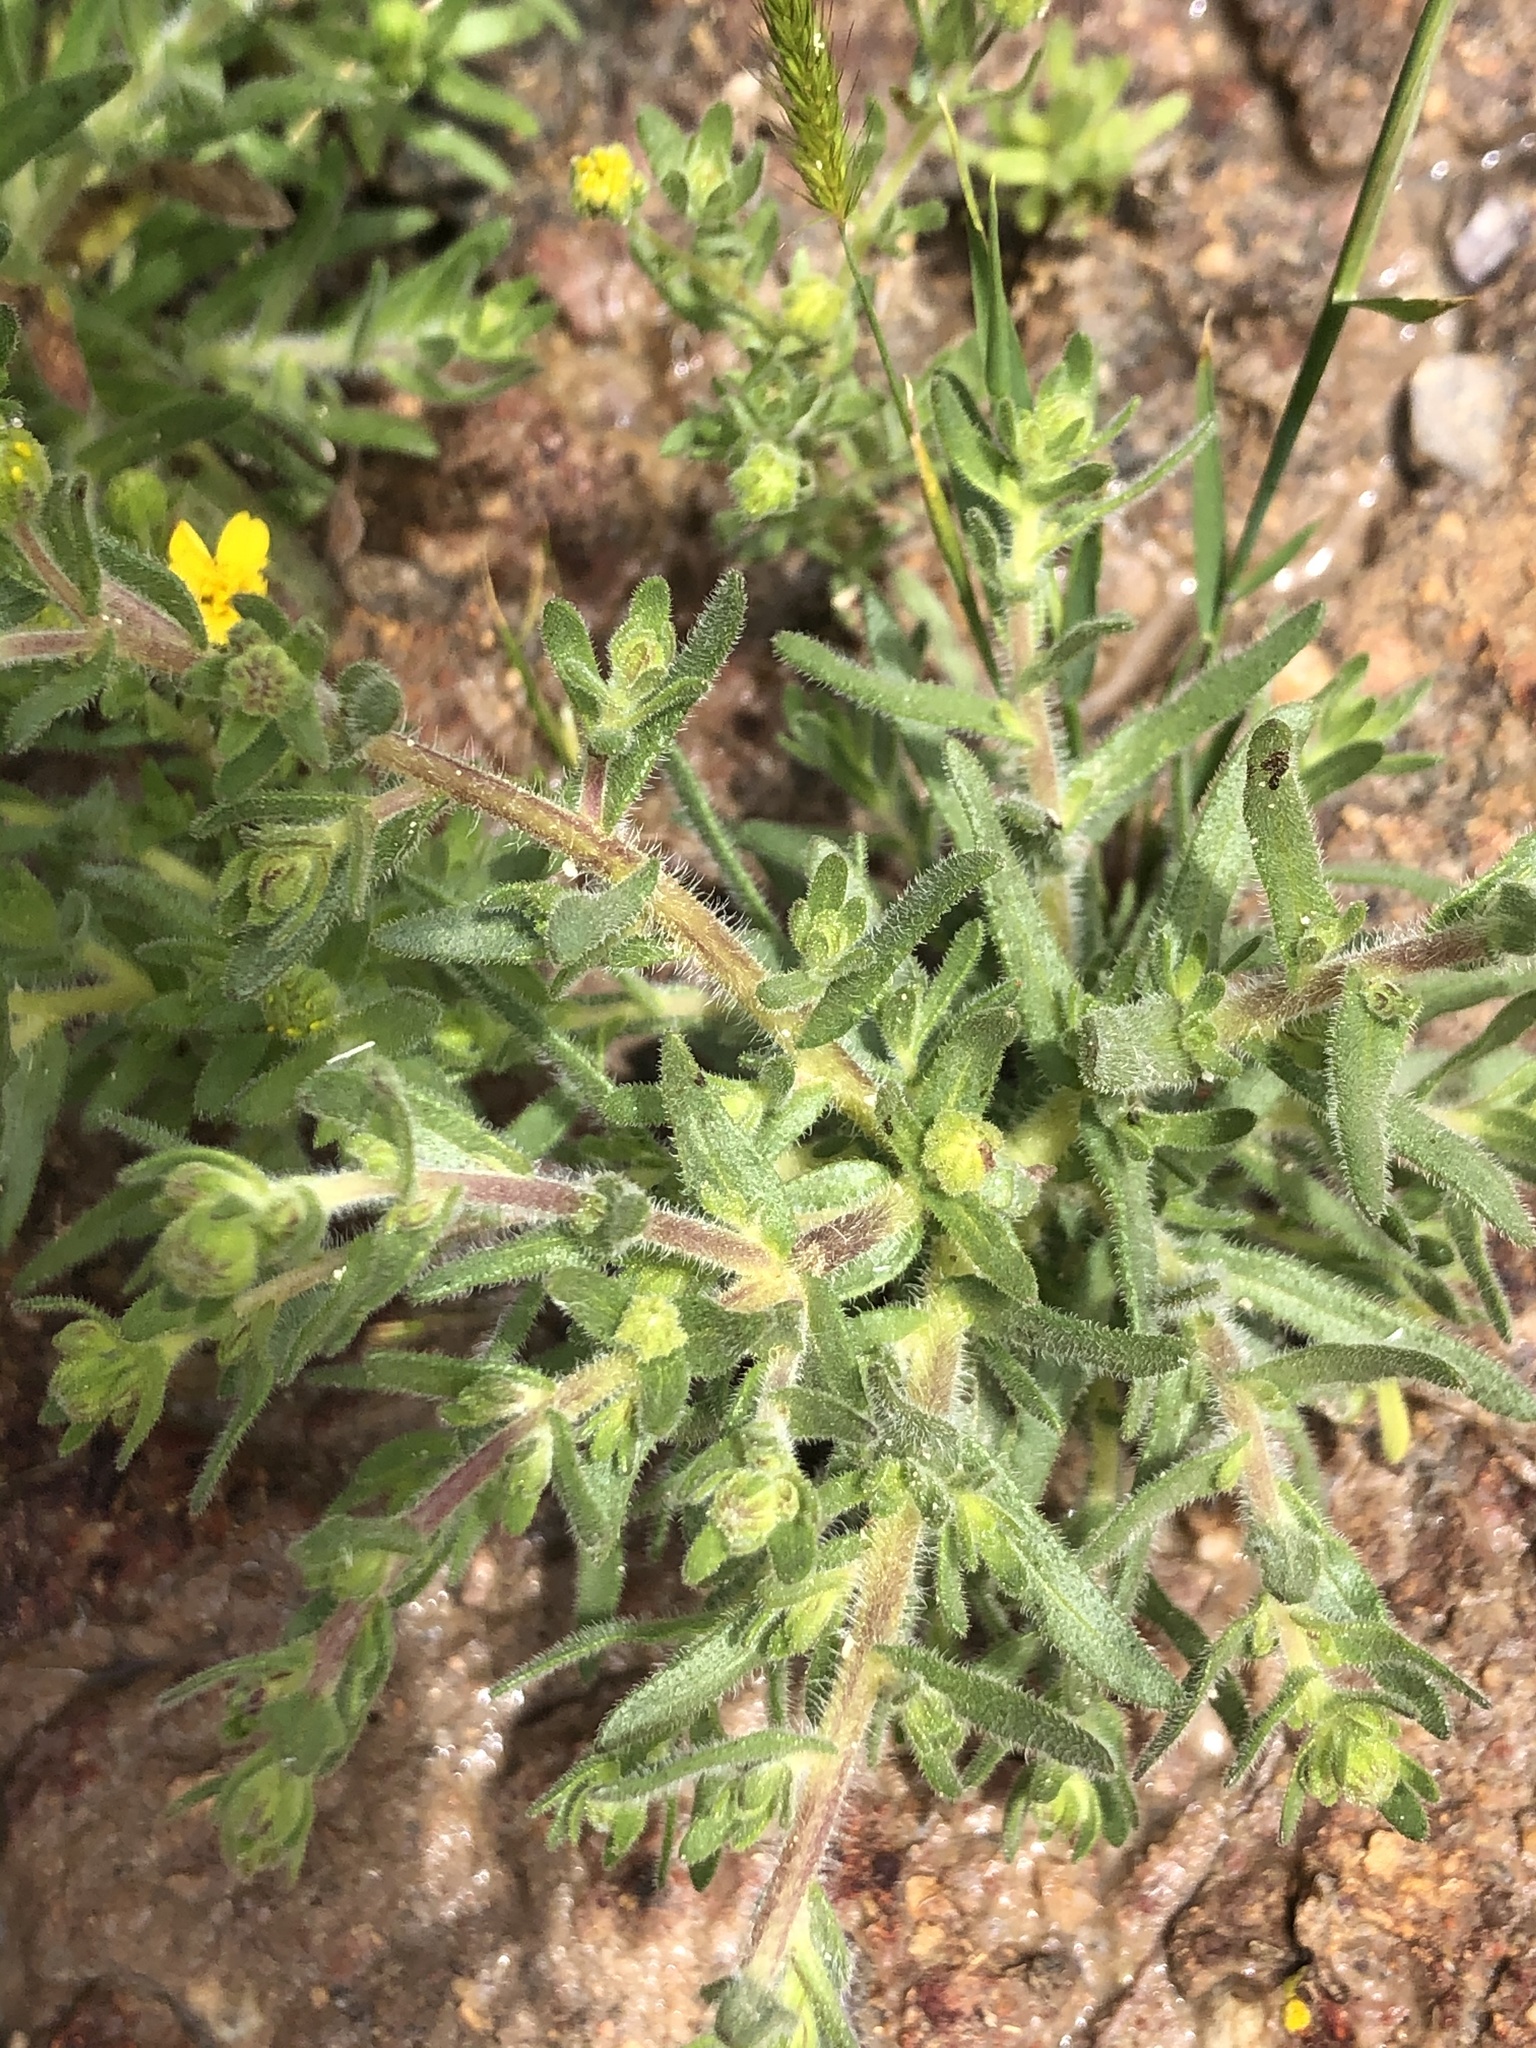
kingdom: Plantae
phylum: Tracheophyta
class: Magnoliopsida
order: Asterales
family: Asteraceae
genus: Deinandra
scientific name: Deinandra arida
